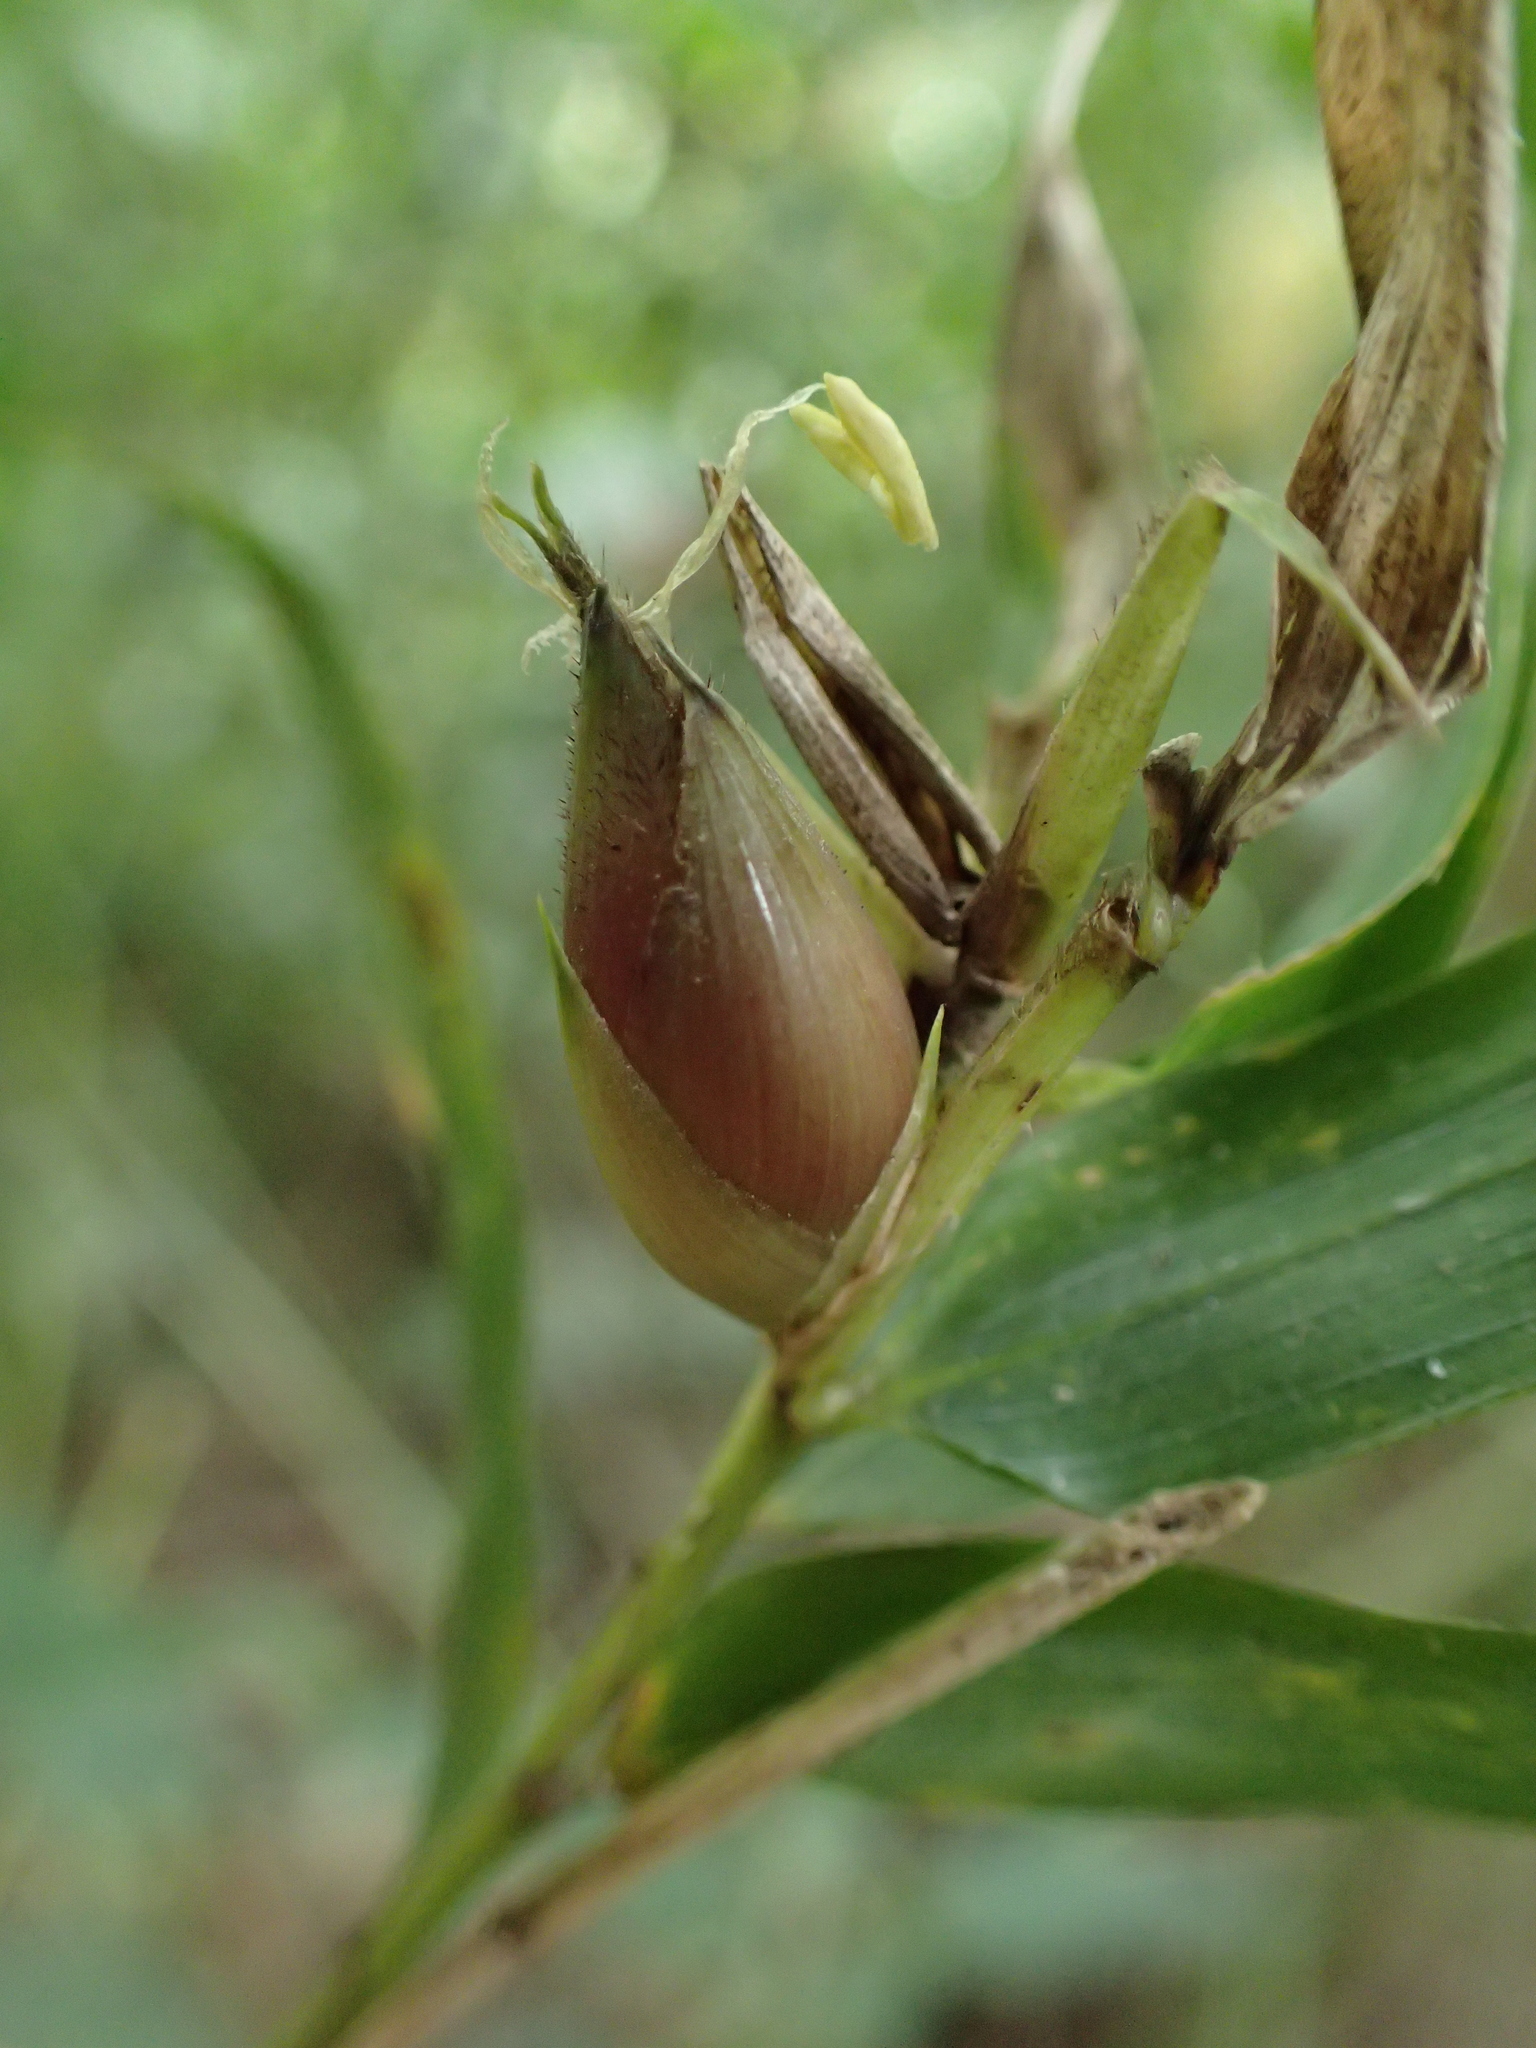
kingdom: Plantae
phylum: Tracheophyta
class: Liliopsida
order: Poales
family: Poaceae
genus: Hickelia
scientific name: Hickelia perrieri
